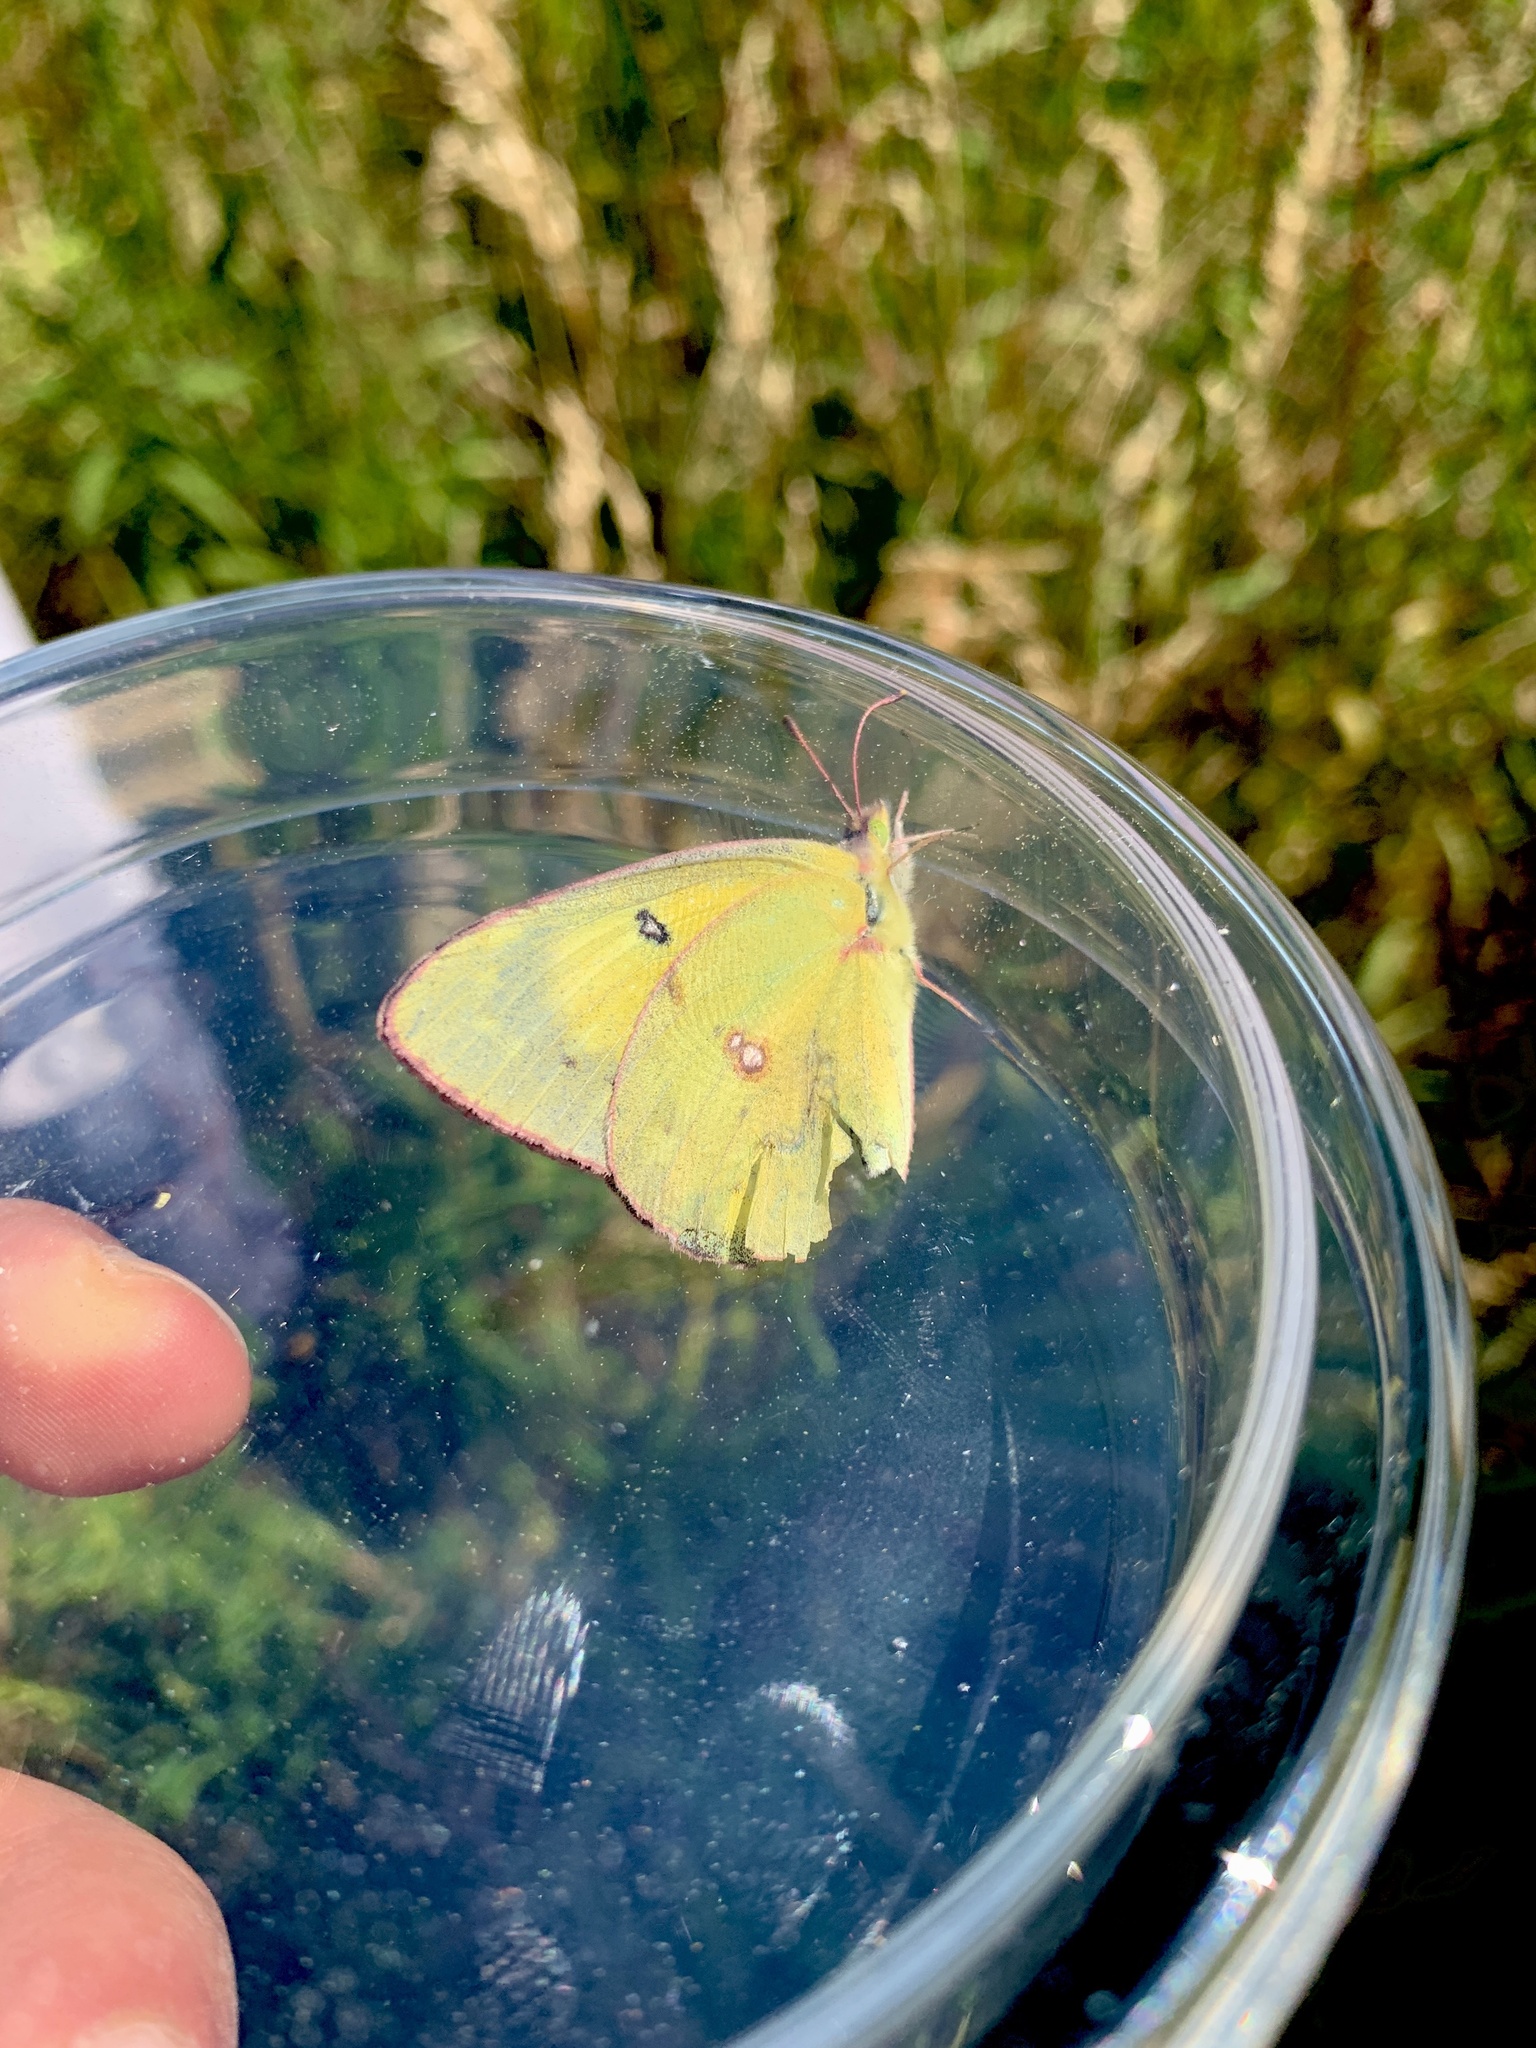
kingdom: Animalia
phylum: Arthropoda
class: Insecta
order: Lepidoptera
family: Pieridae
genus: Colias
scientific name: Colias eurytheme
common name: Alfalfa butterfly
